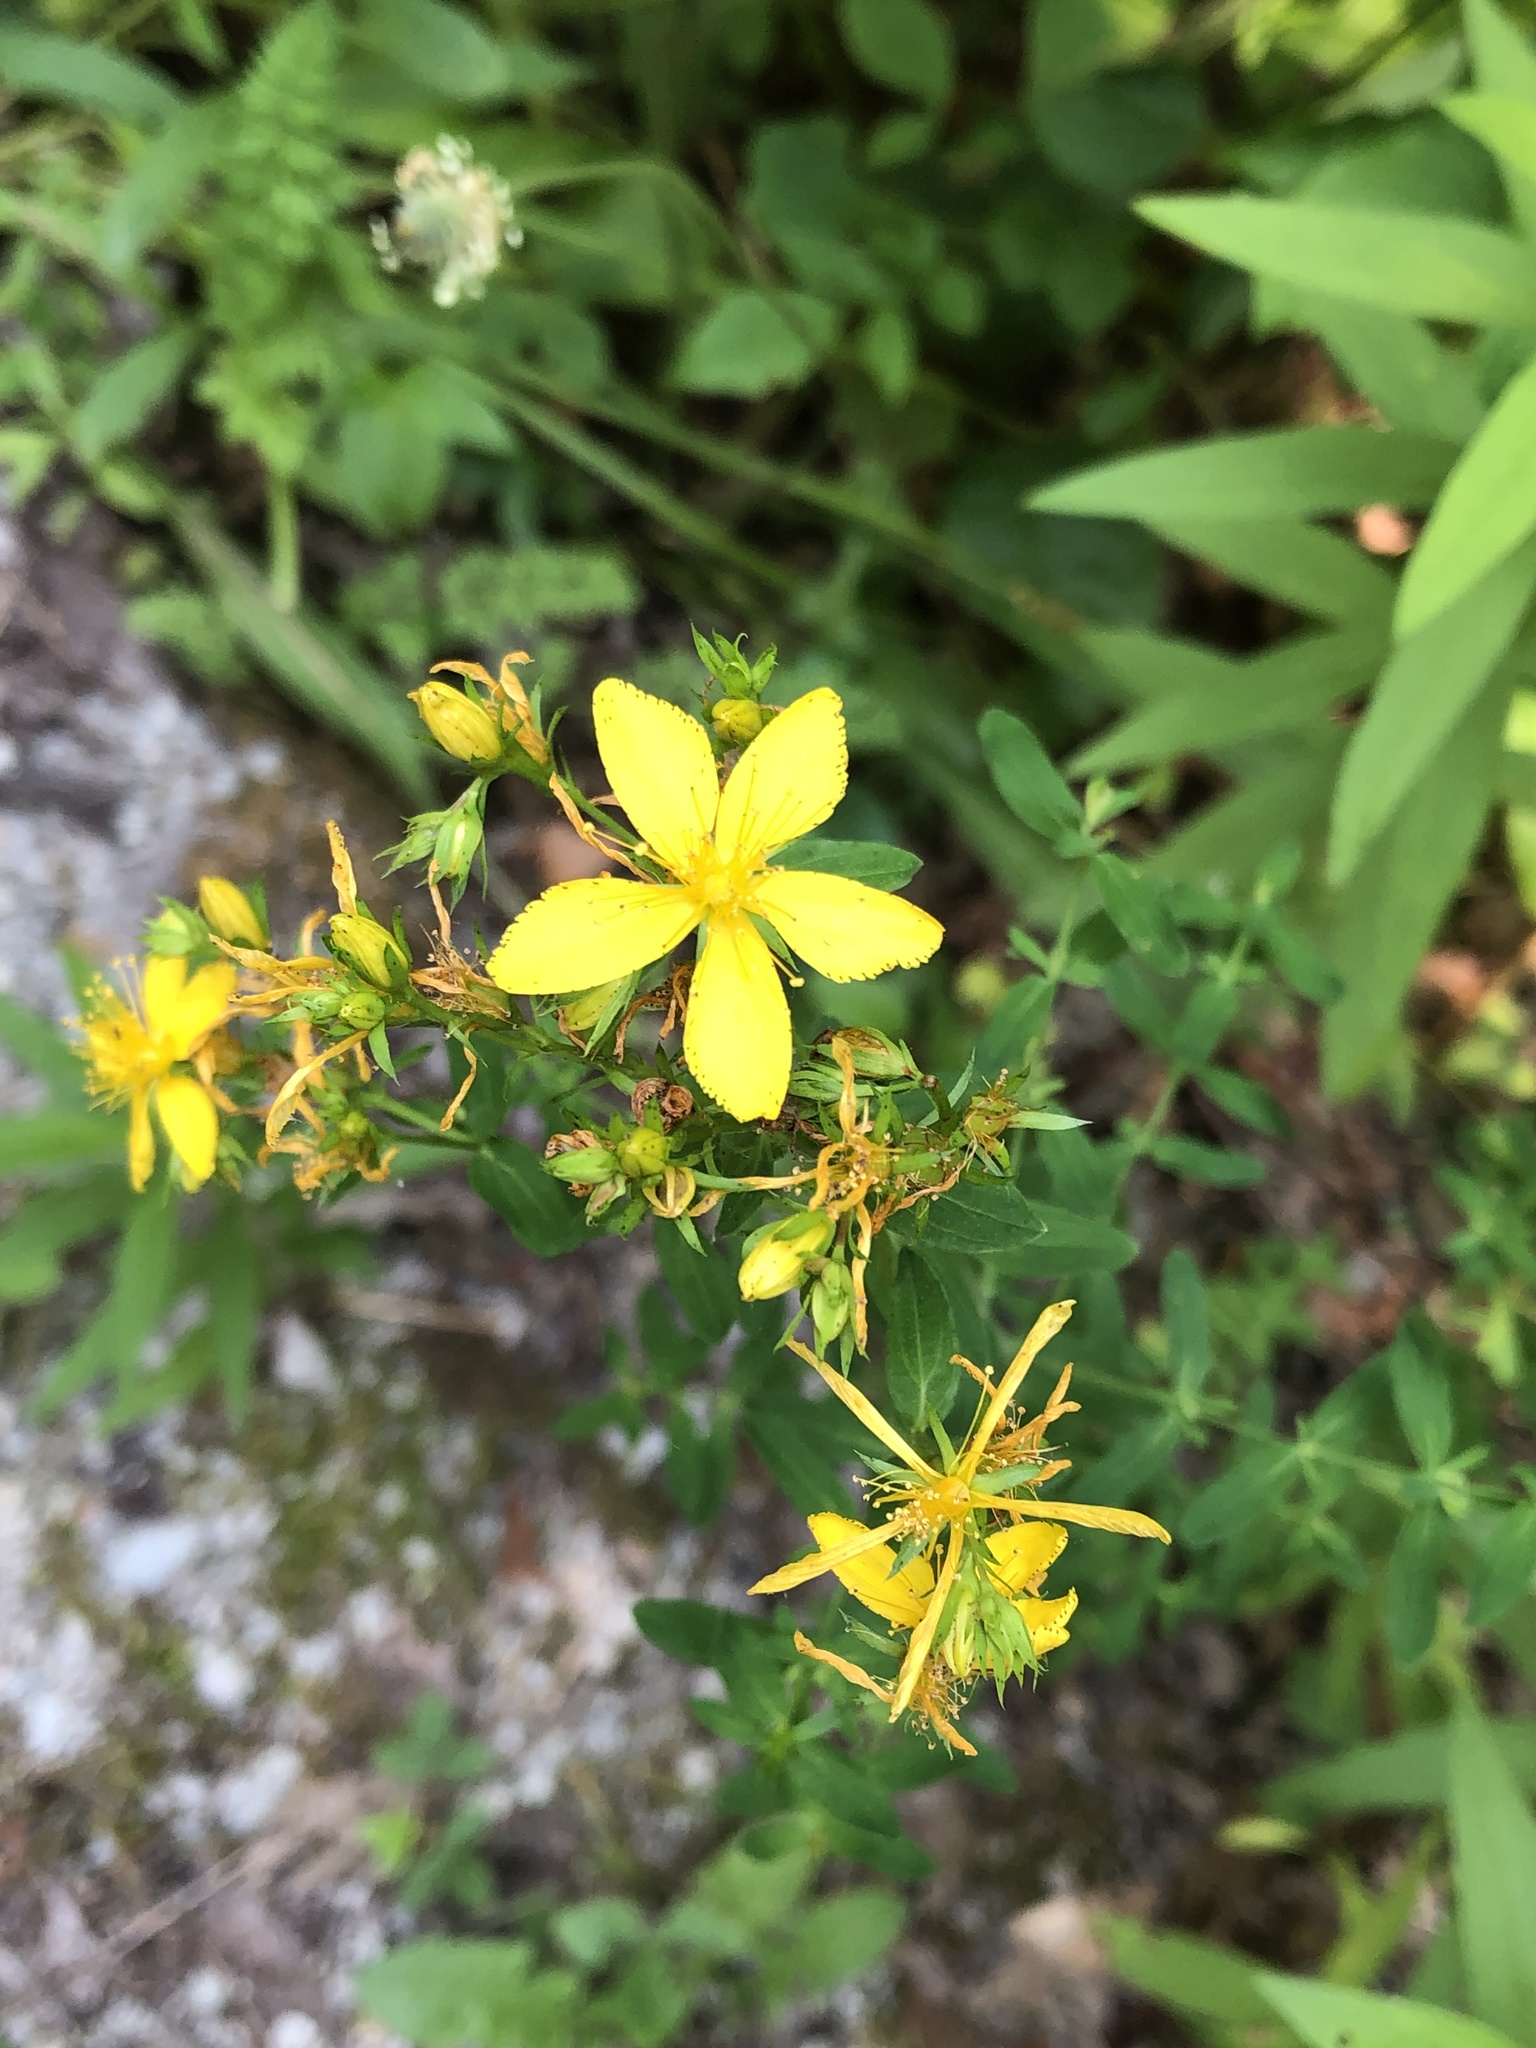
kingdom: Plantae
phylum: Tracheophyta
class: Magnoliopsida
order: Malpighiales
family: Hypericaceae
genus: Hypericum
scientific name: Hypericum perforatum
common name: Common st. johnswort
